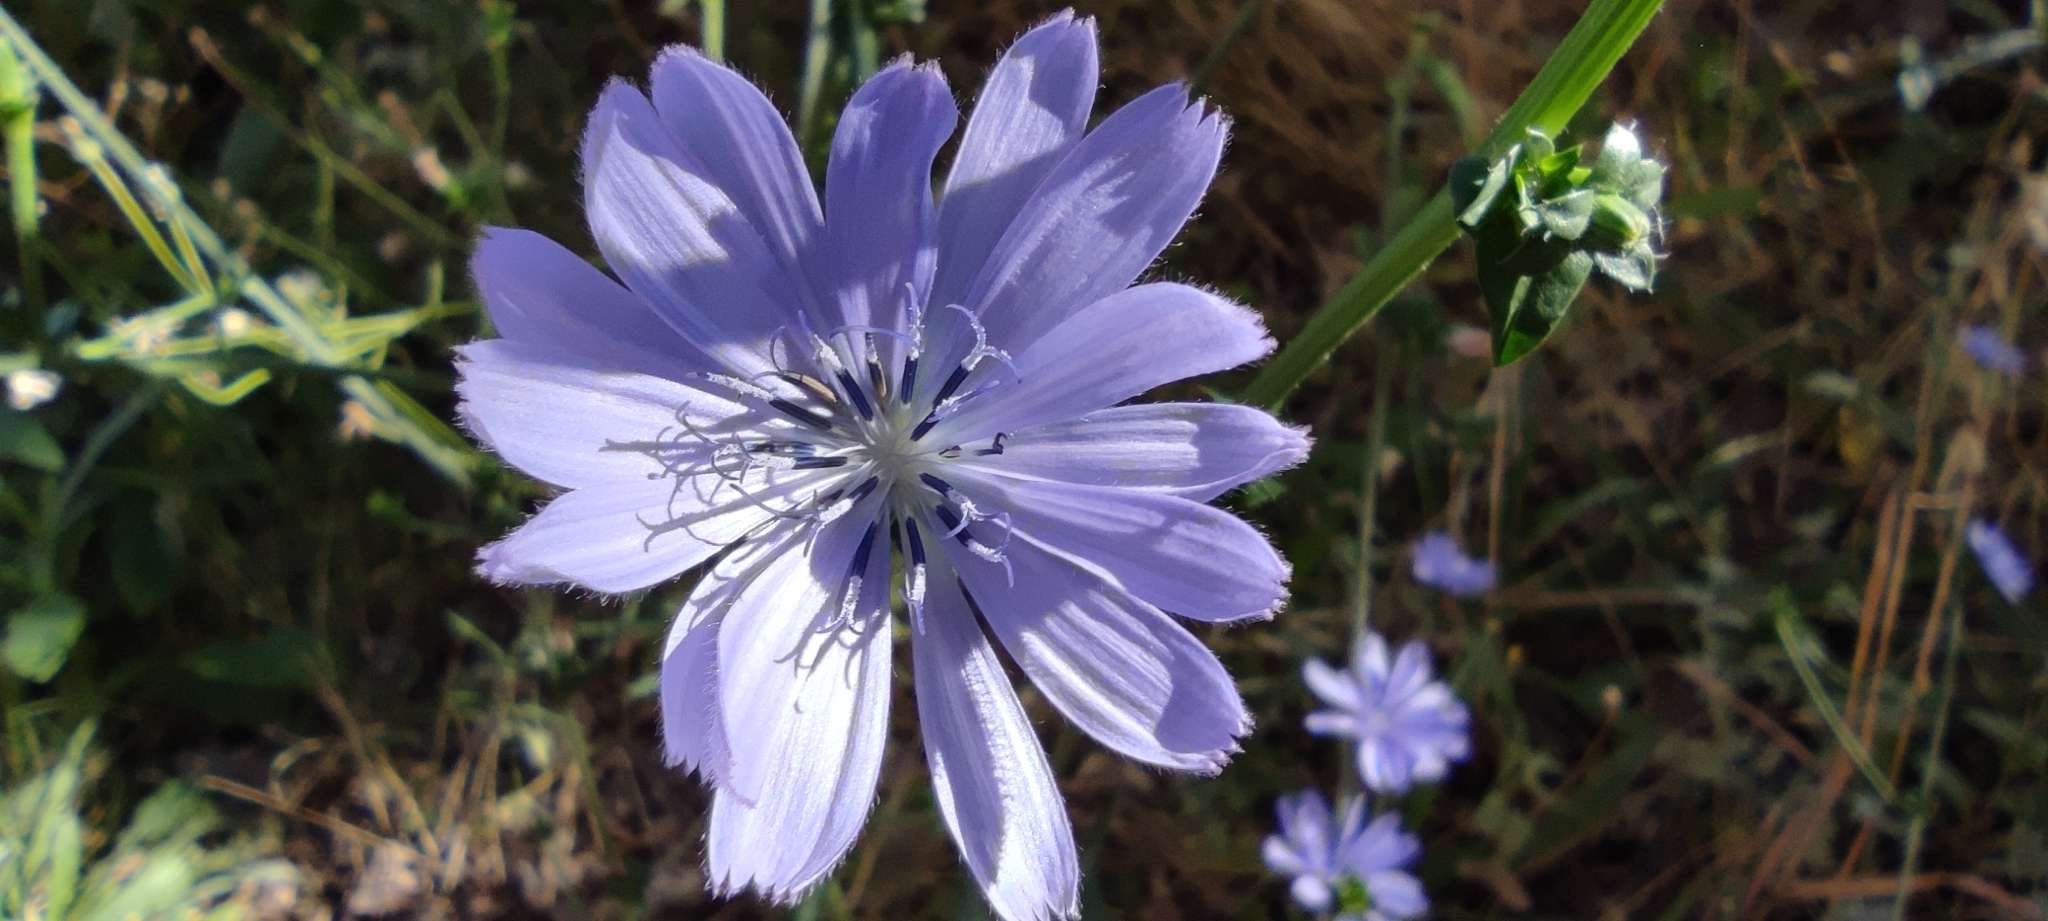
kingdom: Plantae
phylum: Tracheophyta
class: Magnoliopsida
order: Asterales
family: Asteraceae
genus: Cichorium
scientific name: Cichorium endivia
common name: Endive
